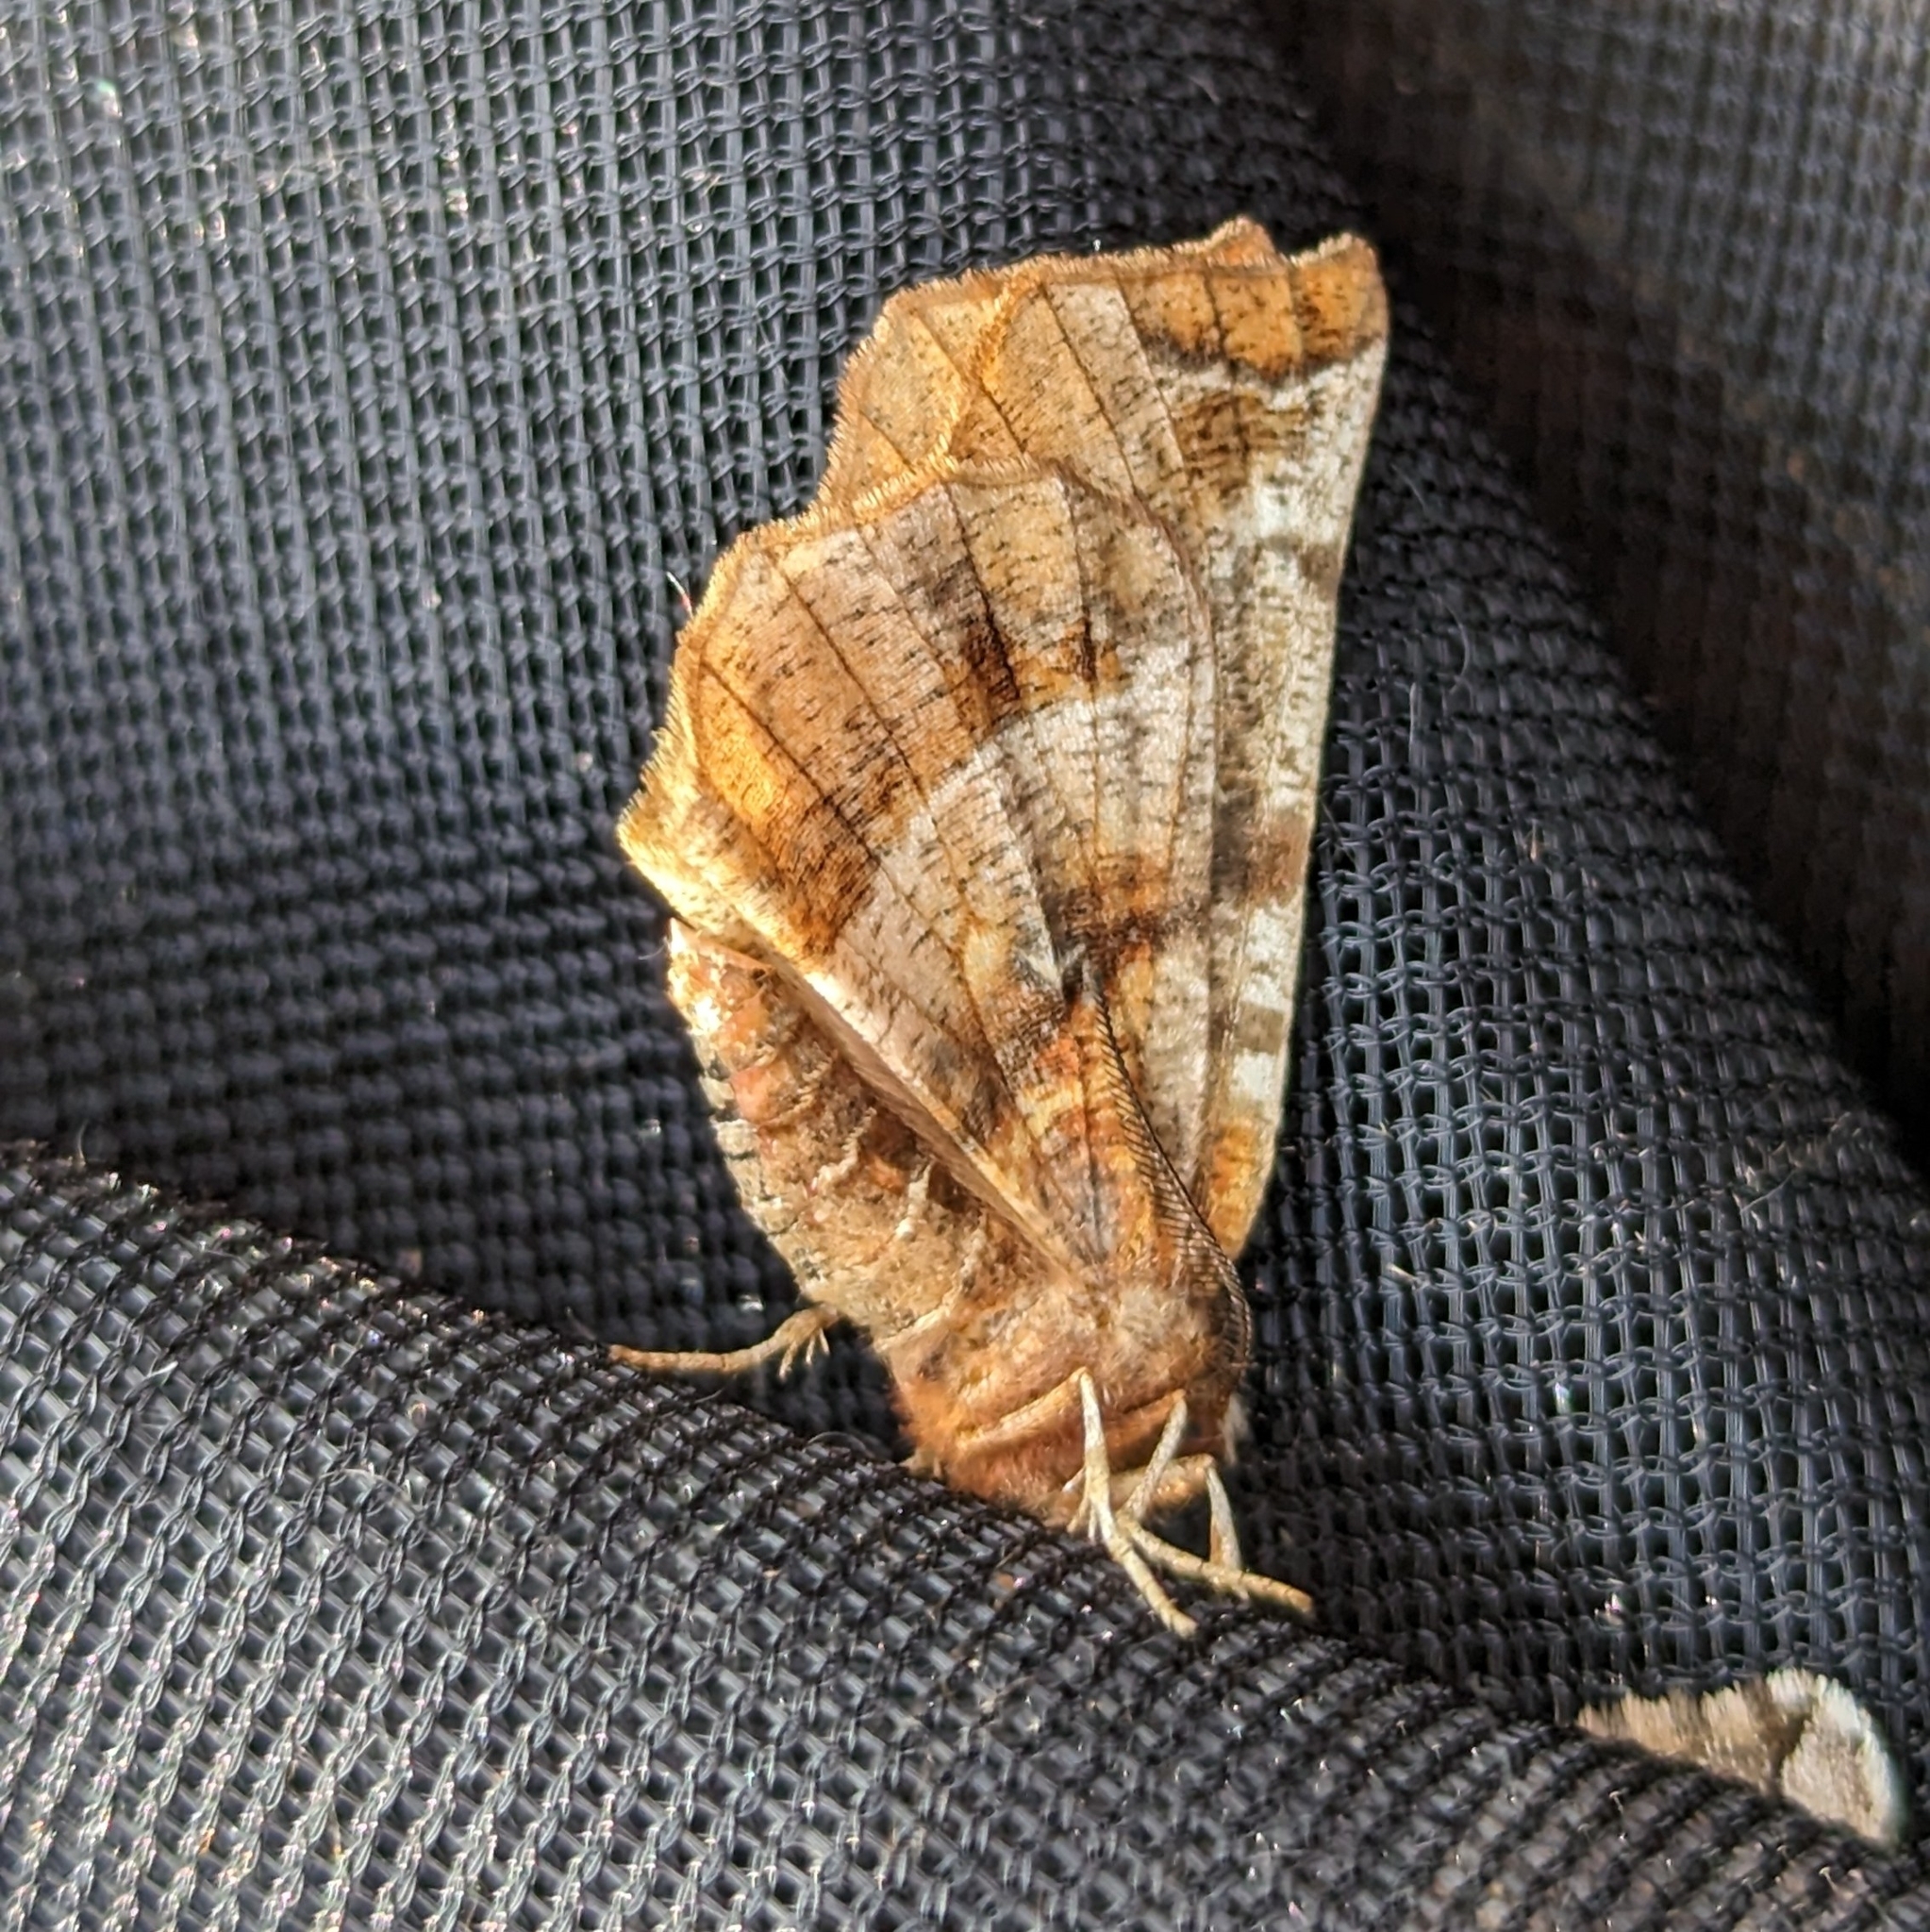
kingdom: Animalia
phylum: Arthropoda
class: Insecta
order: Lepidoptera
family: Geometridae
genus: Selenia
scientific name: Selenia alciphearia
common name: Brown-tipped thorn
